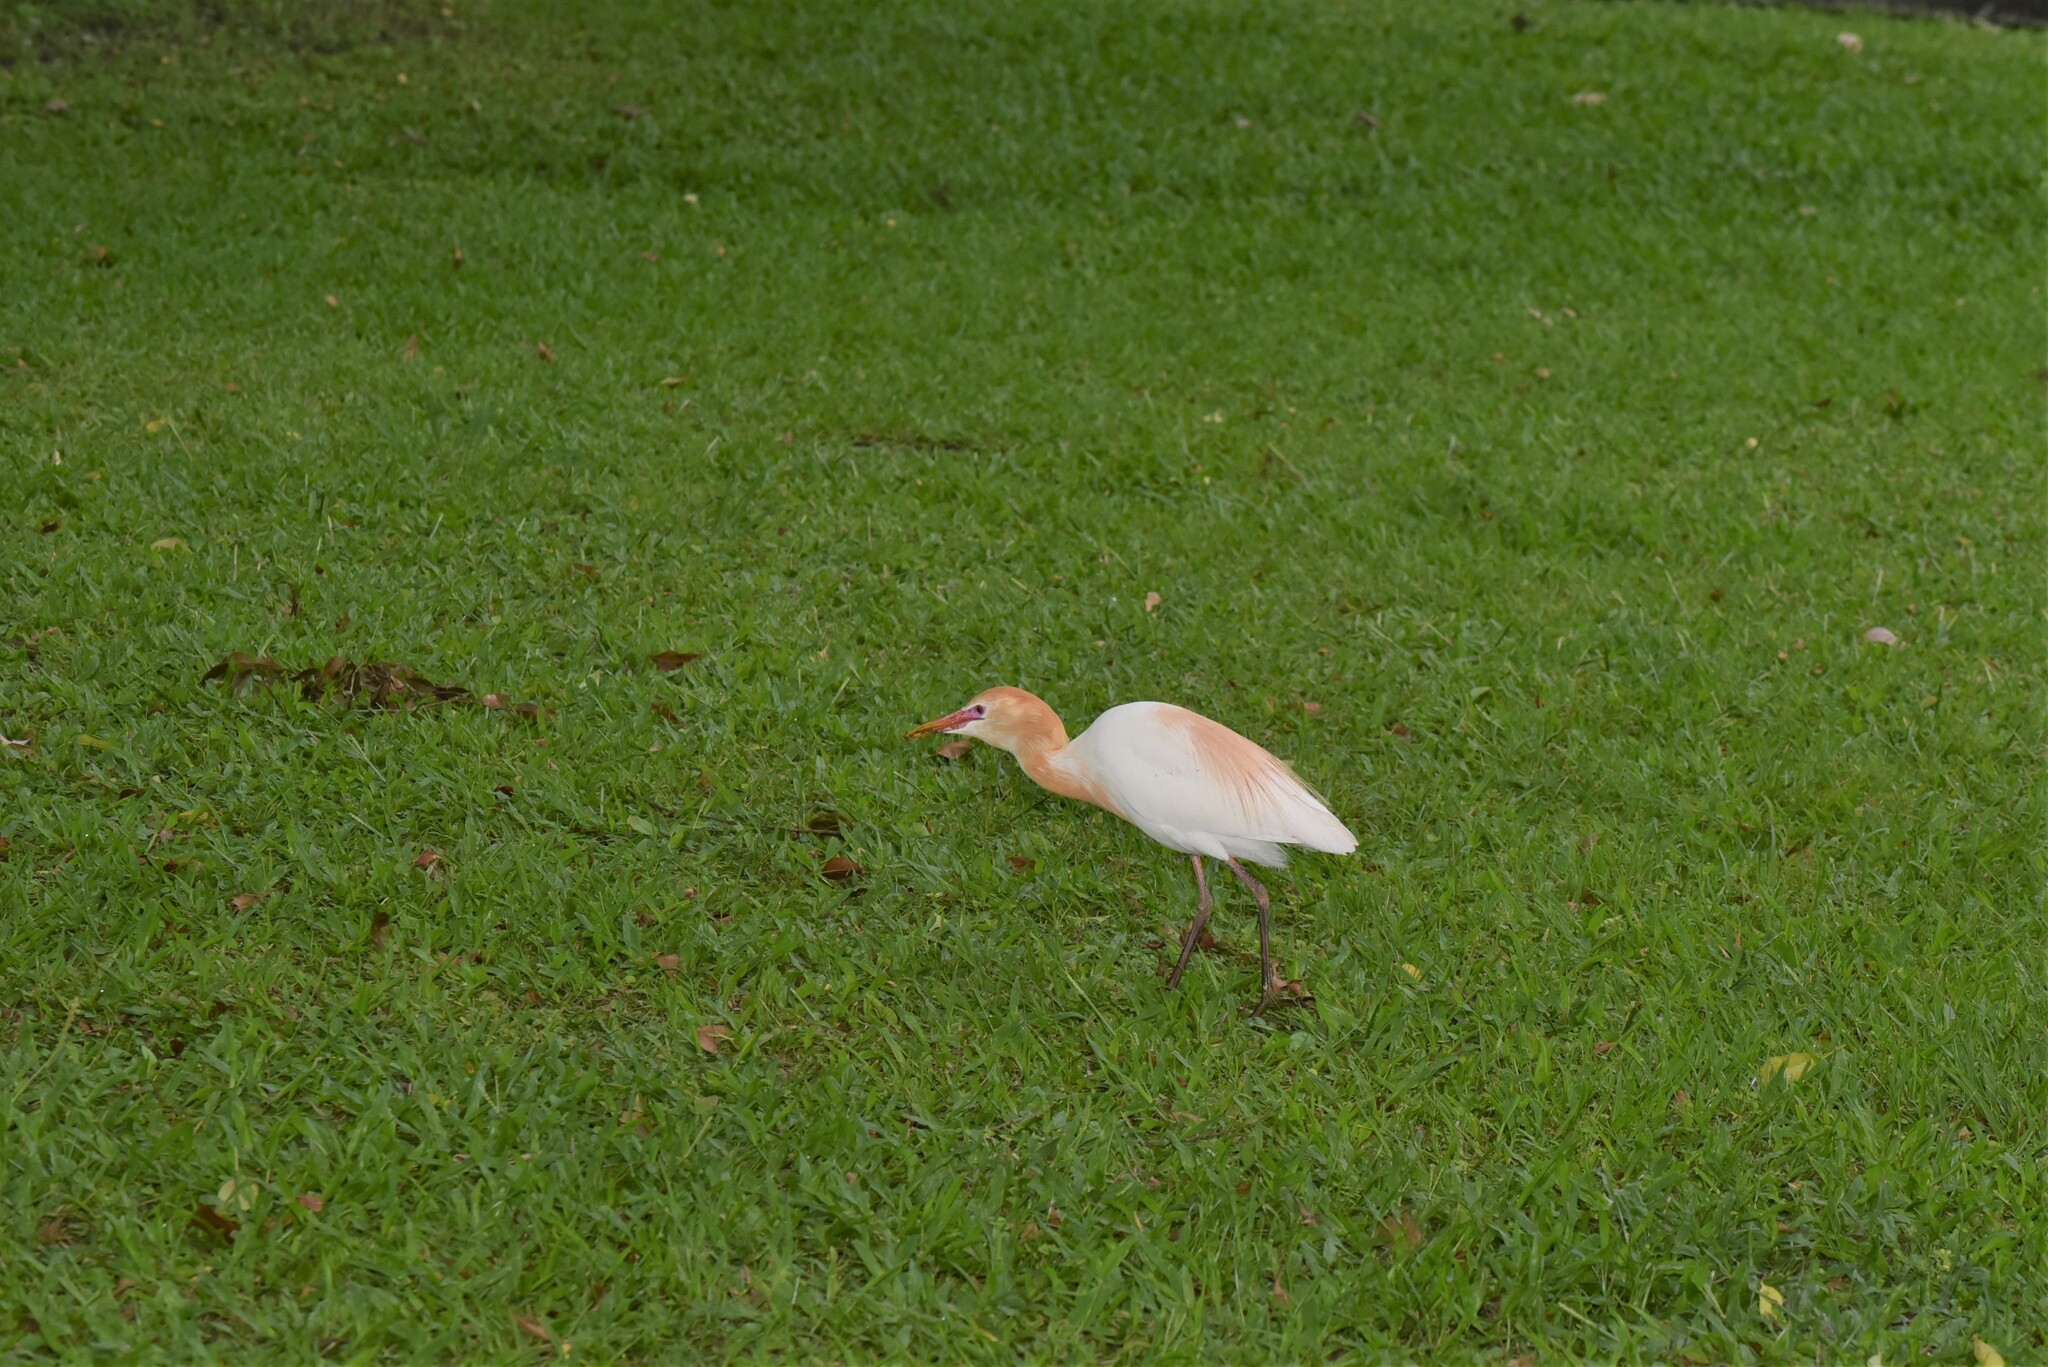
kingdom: Animalia
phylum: Chordata
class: Aves
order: Pelecaniformes
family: Ardeidae
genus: Bubulcus
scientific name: Bubulcus coromandus
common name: Eastern cattle egret
